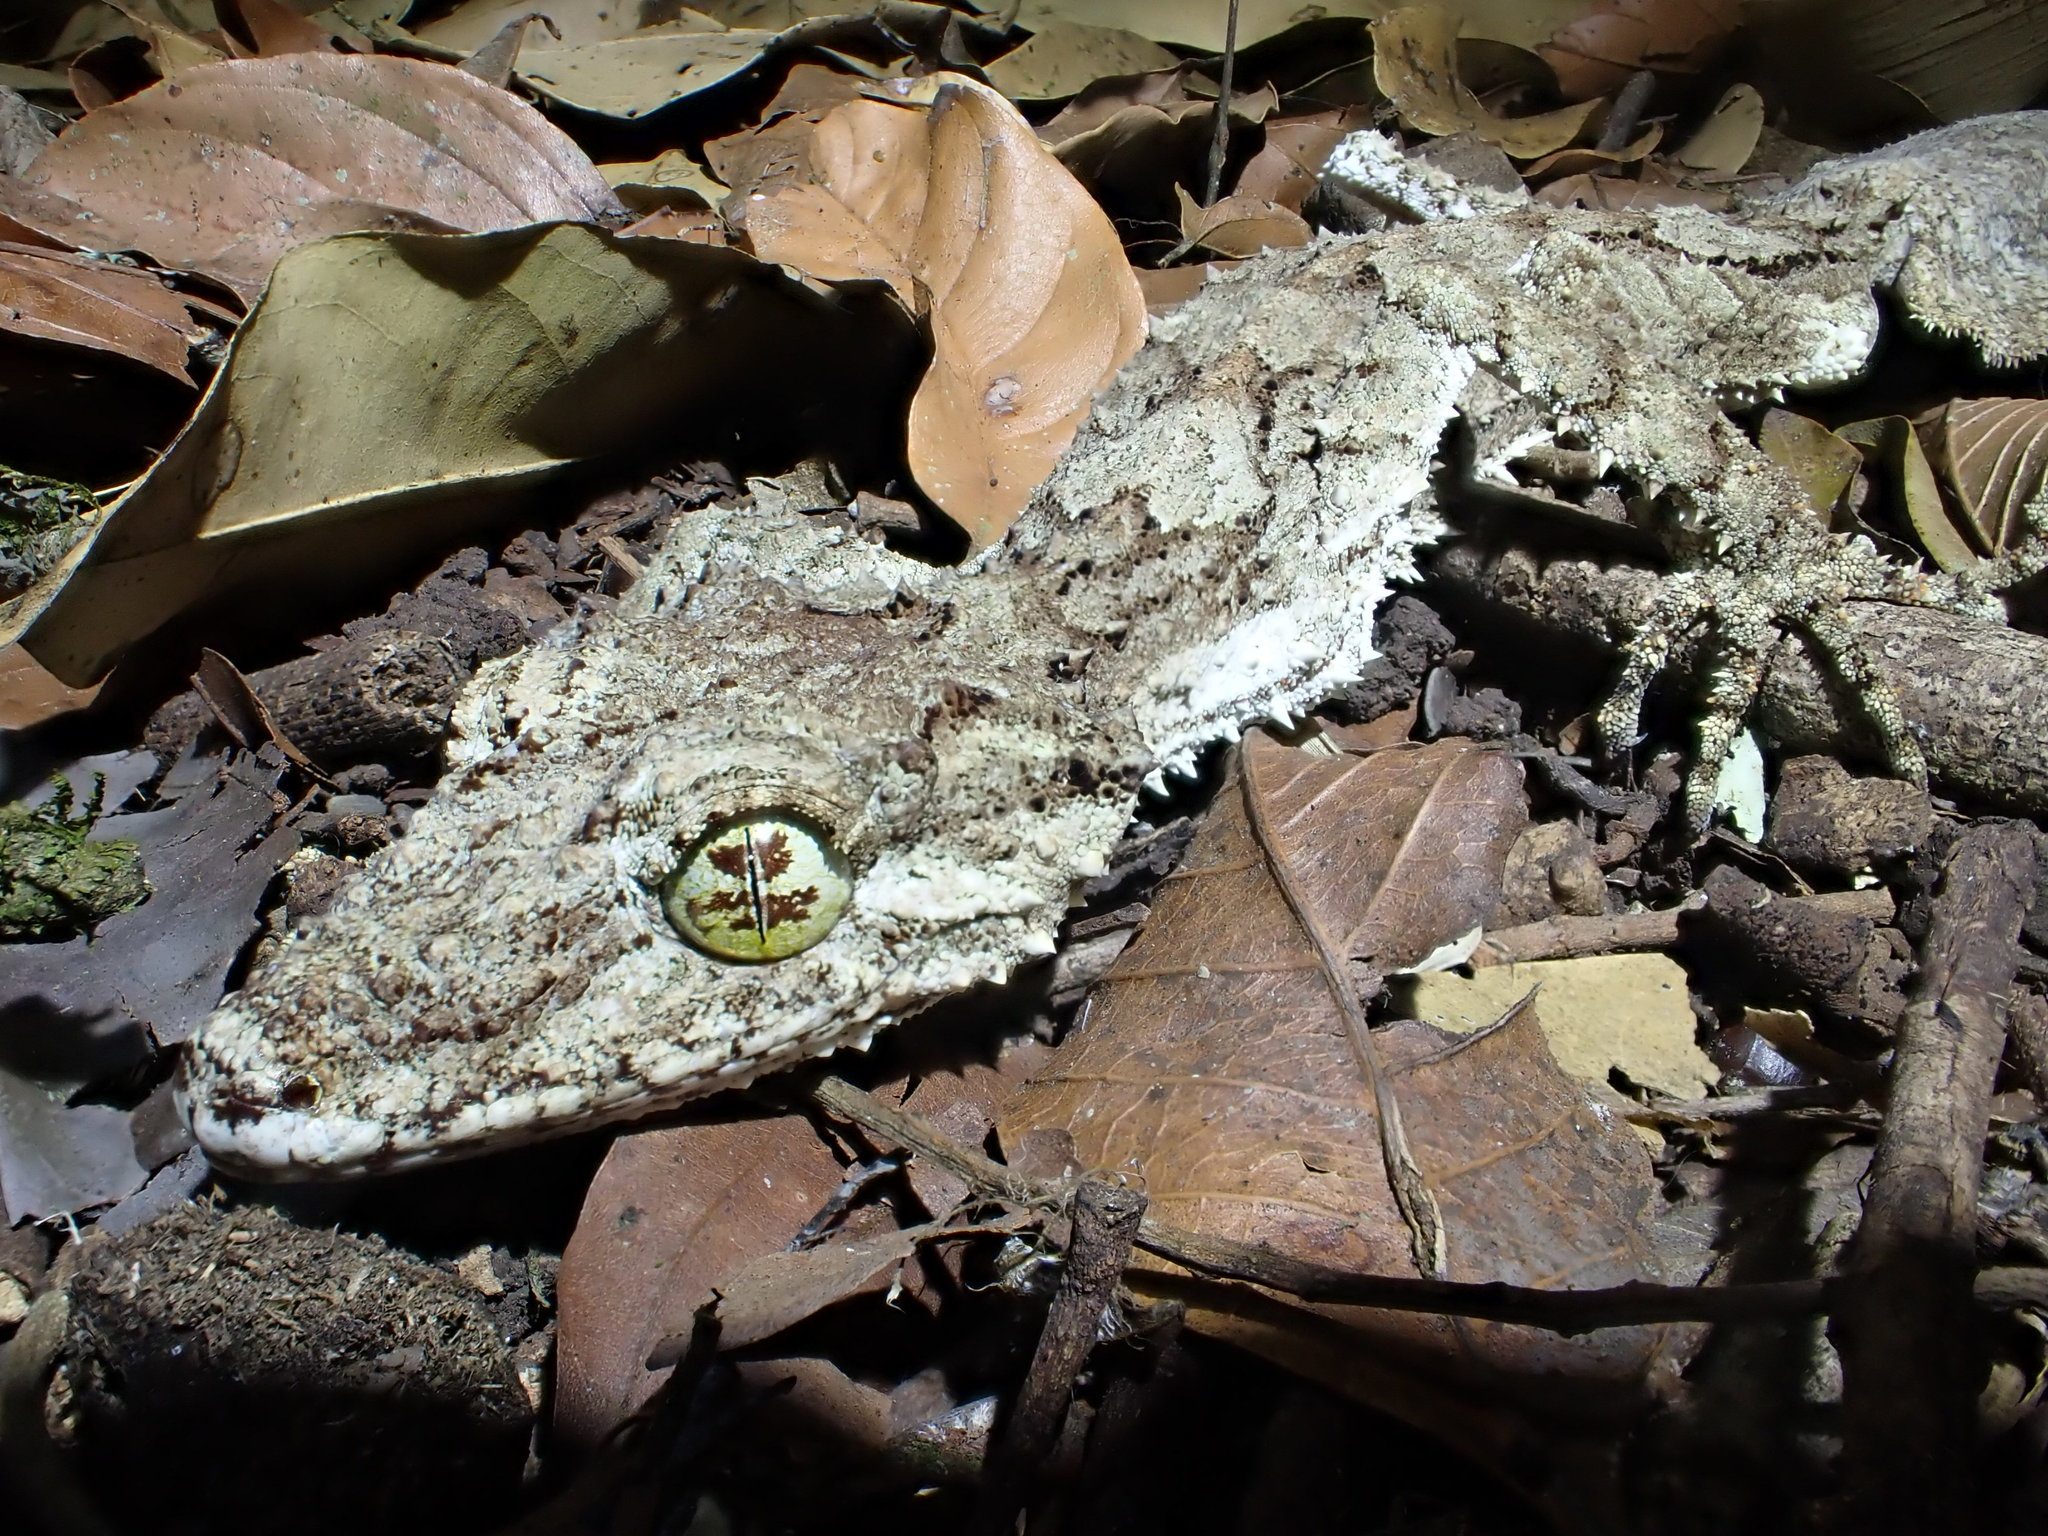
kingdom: Animalia
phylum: Chordata
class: Squamata
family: Carphodactylidae
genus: Saltuarius
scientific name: Saltuarius cornutus
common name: Leaf-tailed gecko
